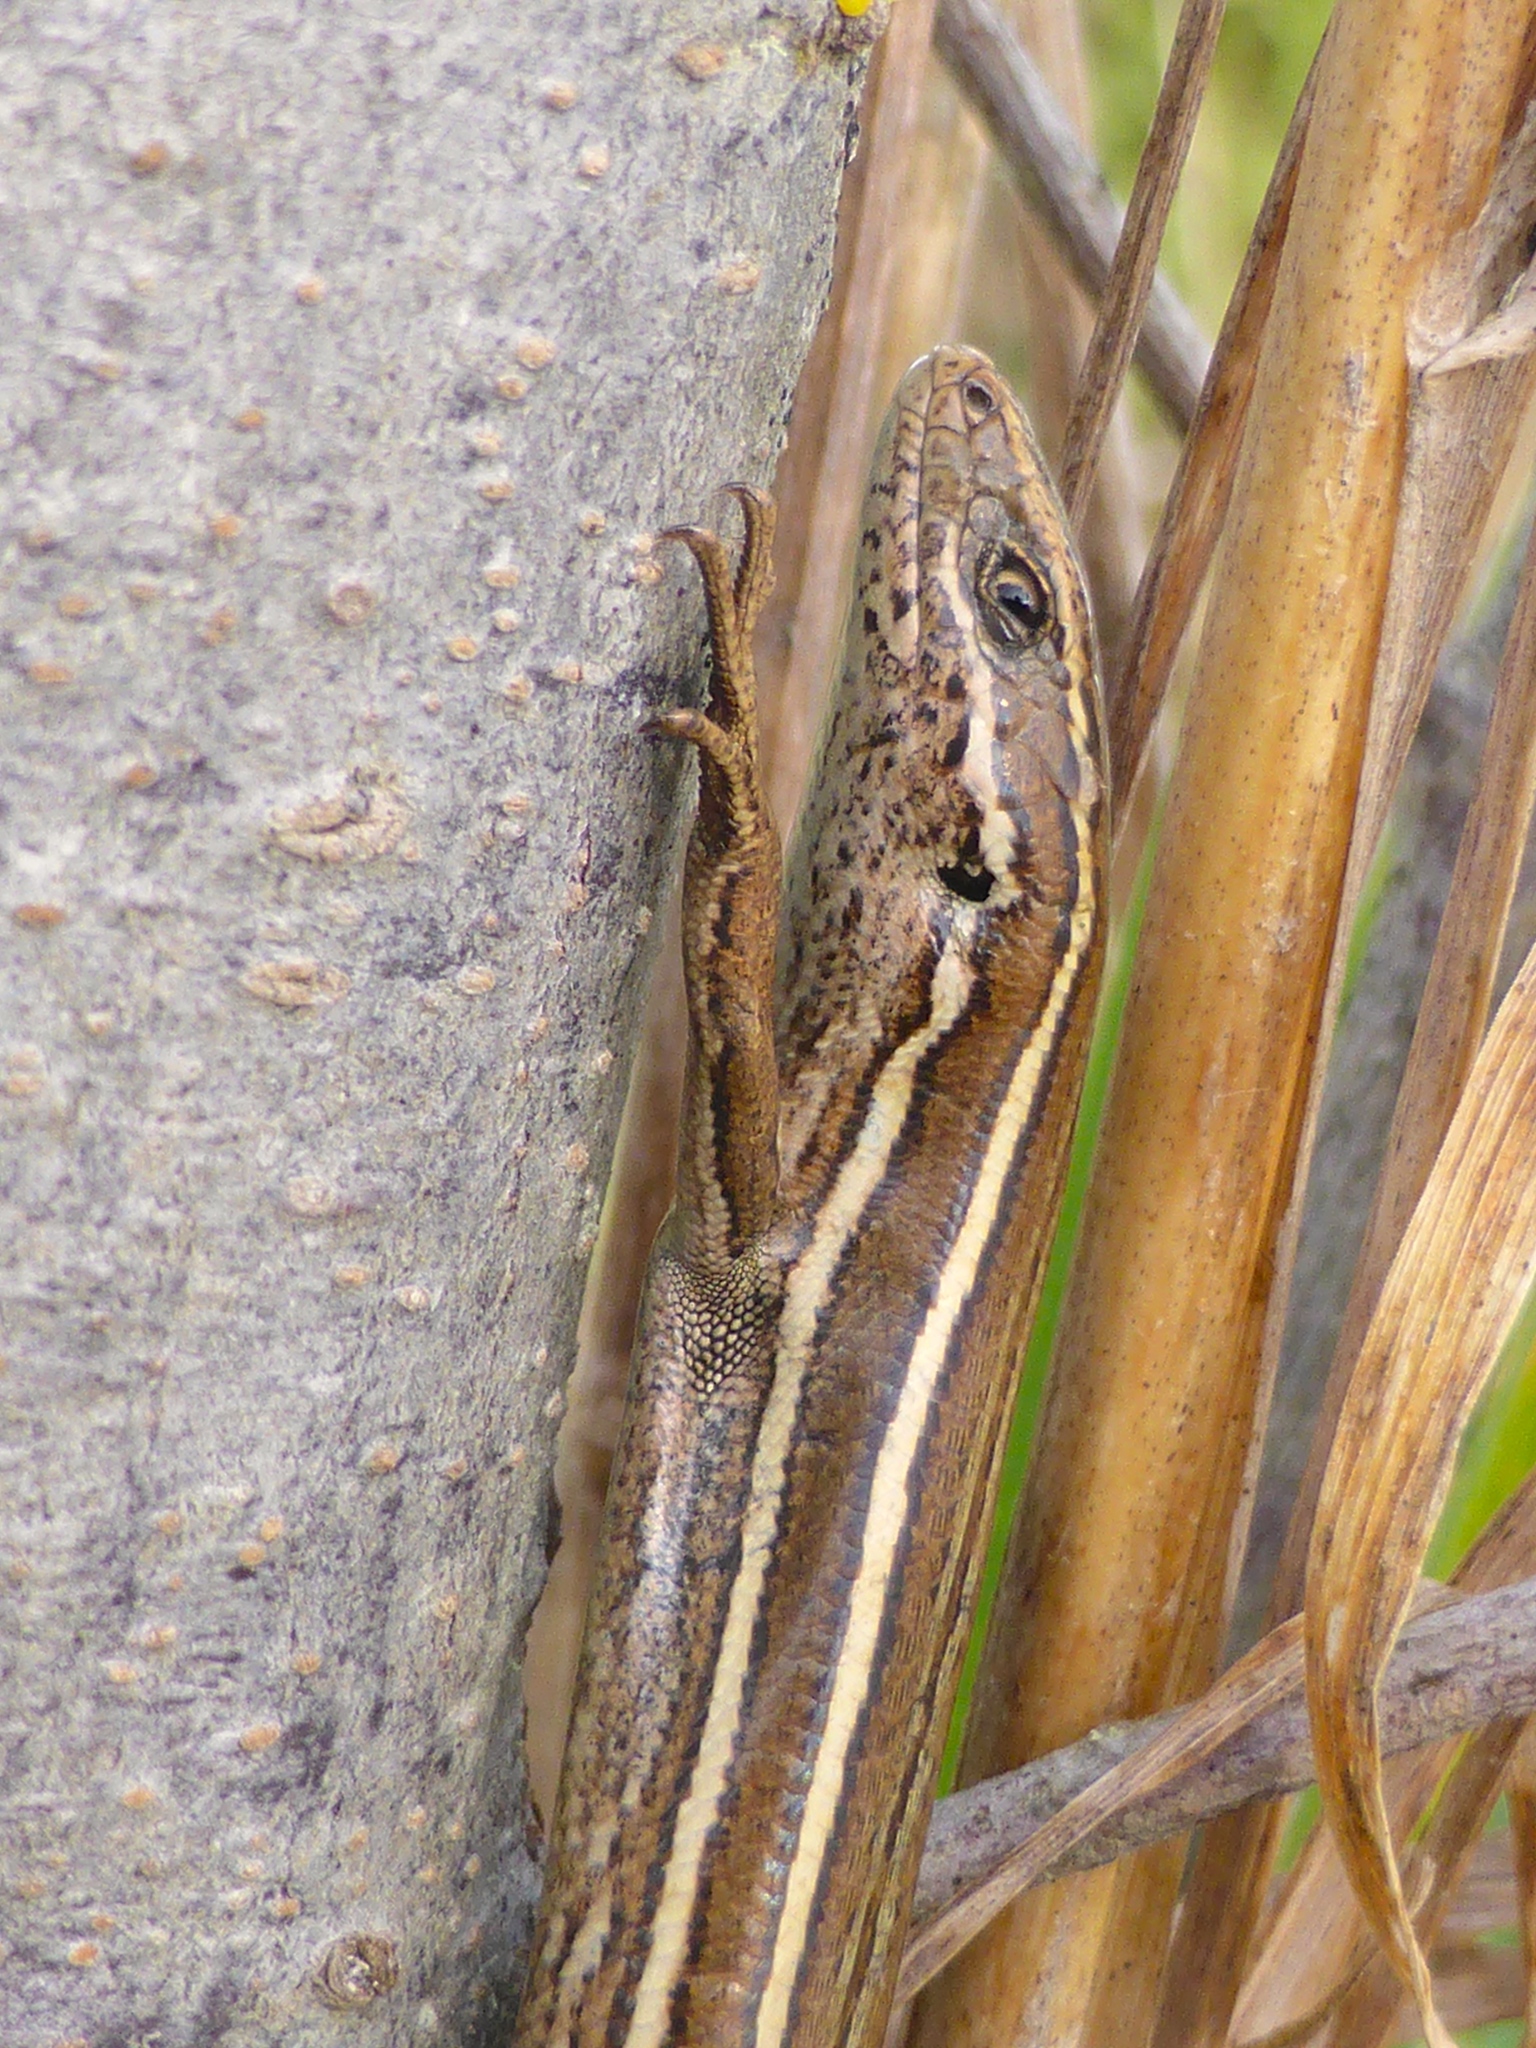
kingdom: Animalia
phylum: Chordata
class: Squamata
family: Scincidae
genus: Oligosoma
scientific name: Oligosoma maccanni
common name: Mccann’s skink
